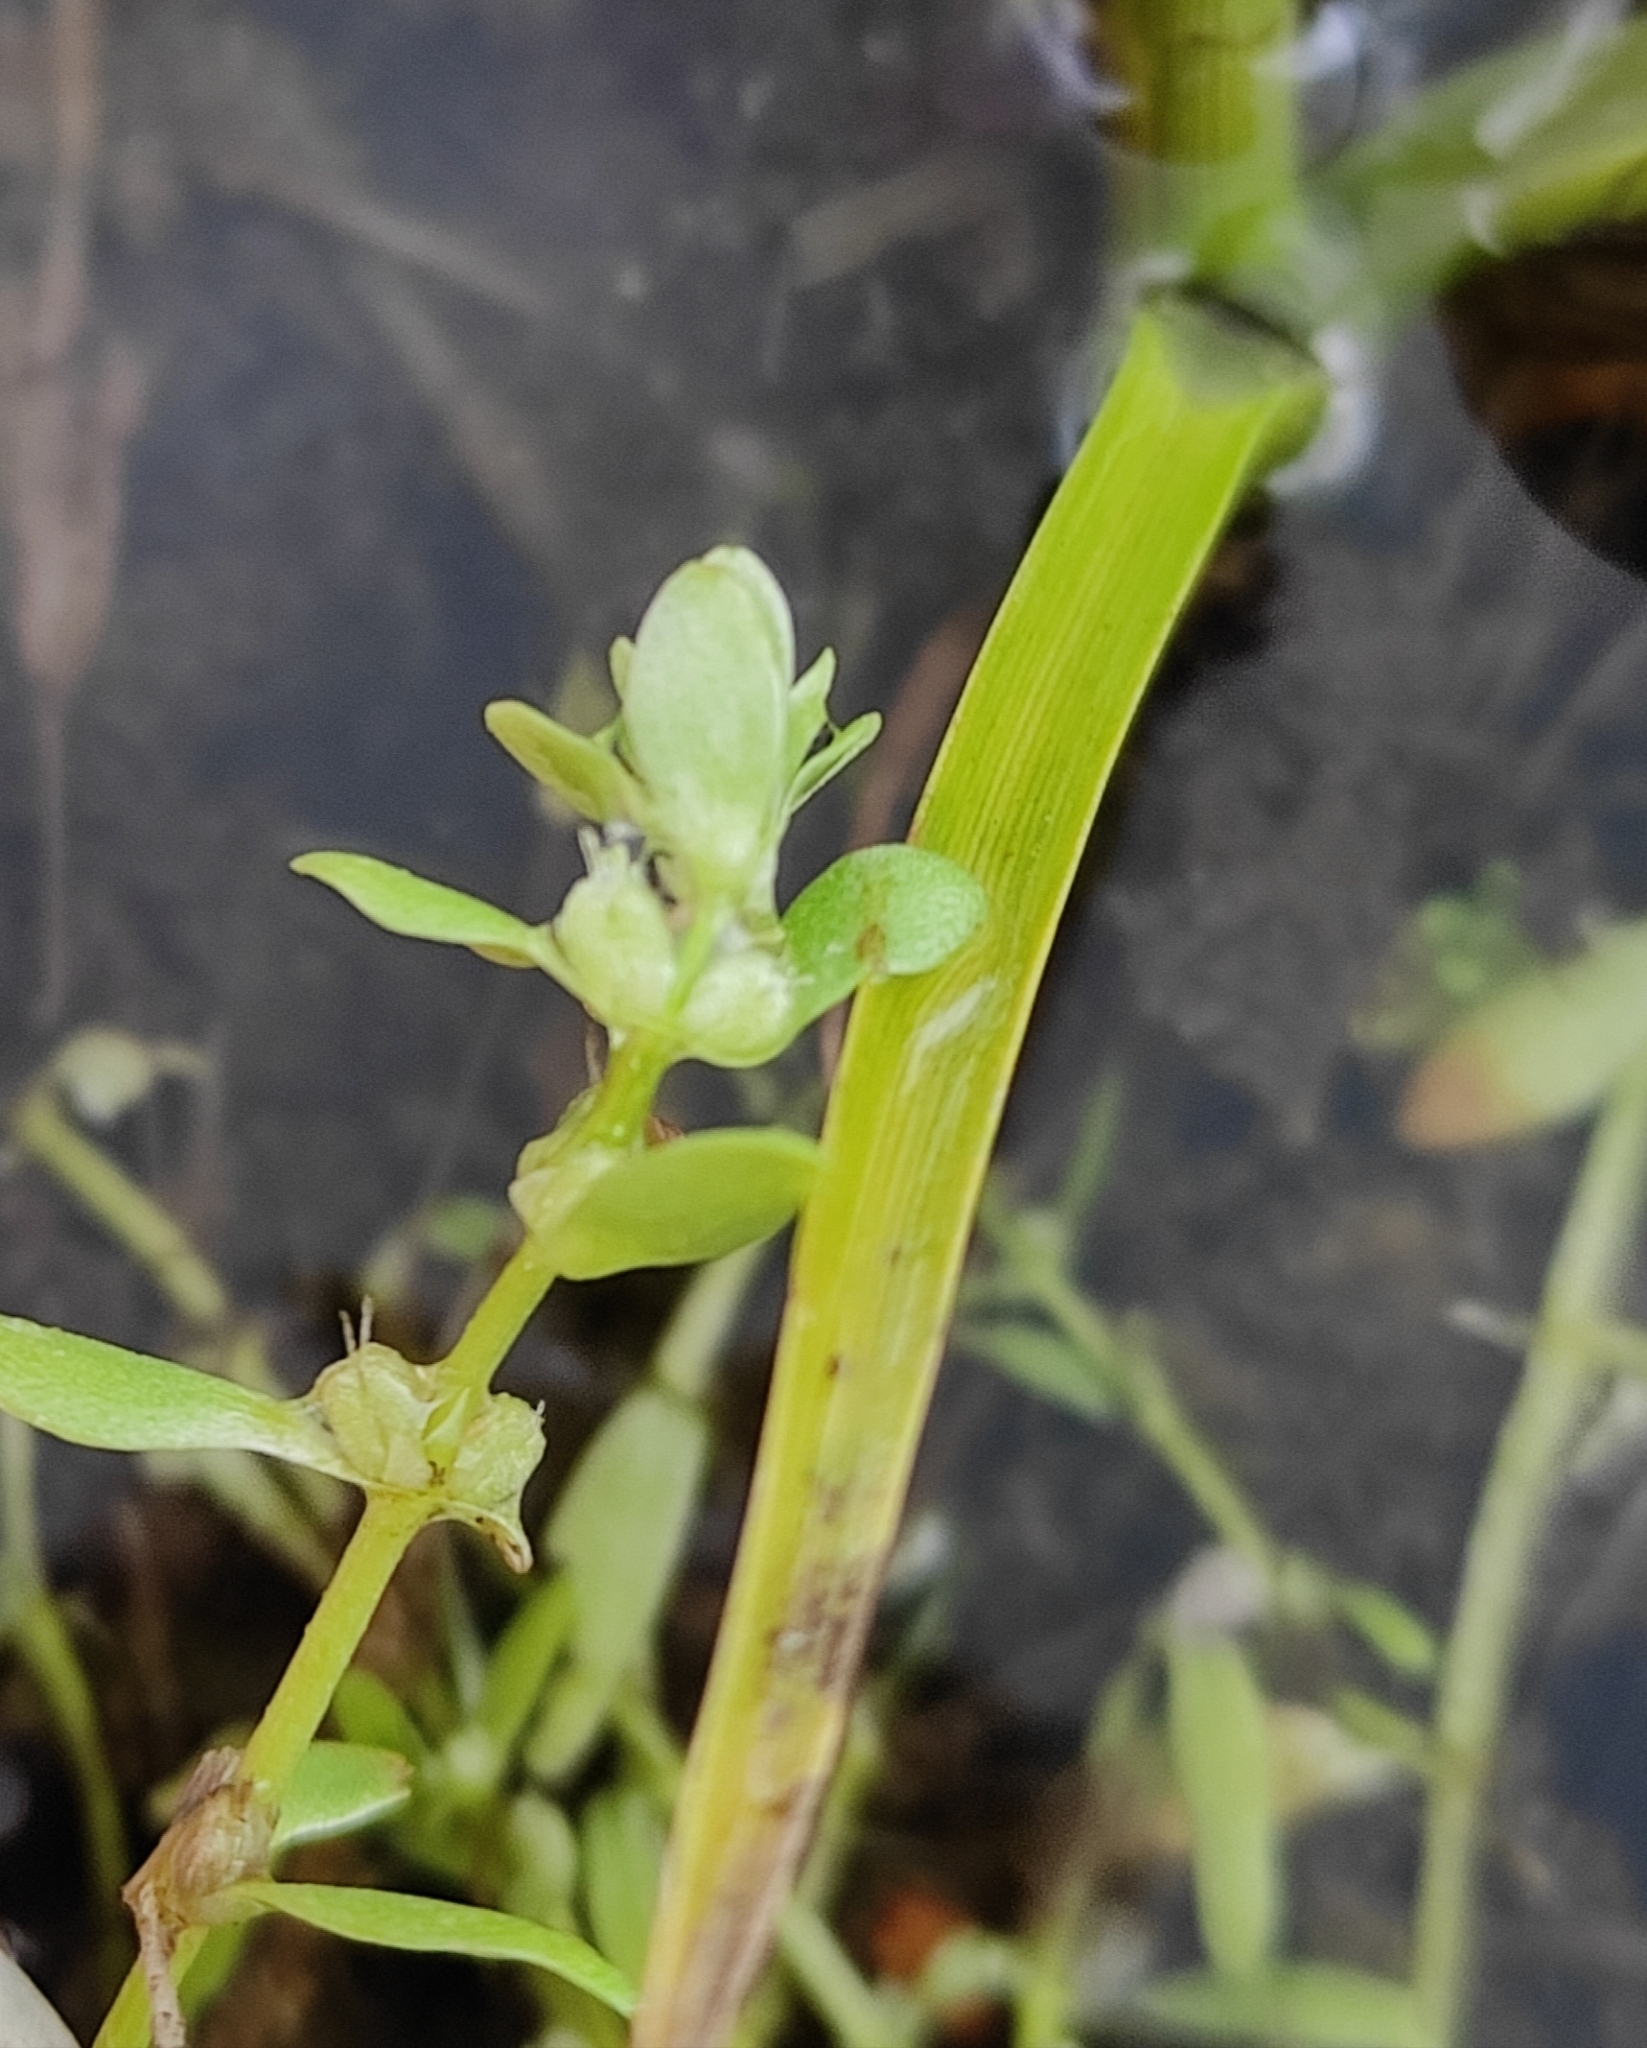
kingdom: Plantae
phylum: Tracheophyta
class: Magnoliopsida
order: Lamiales
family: Plantaginaceae
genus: Callitriche
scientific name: Callitriche palustris
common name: Spring water-starwort
